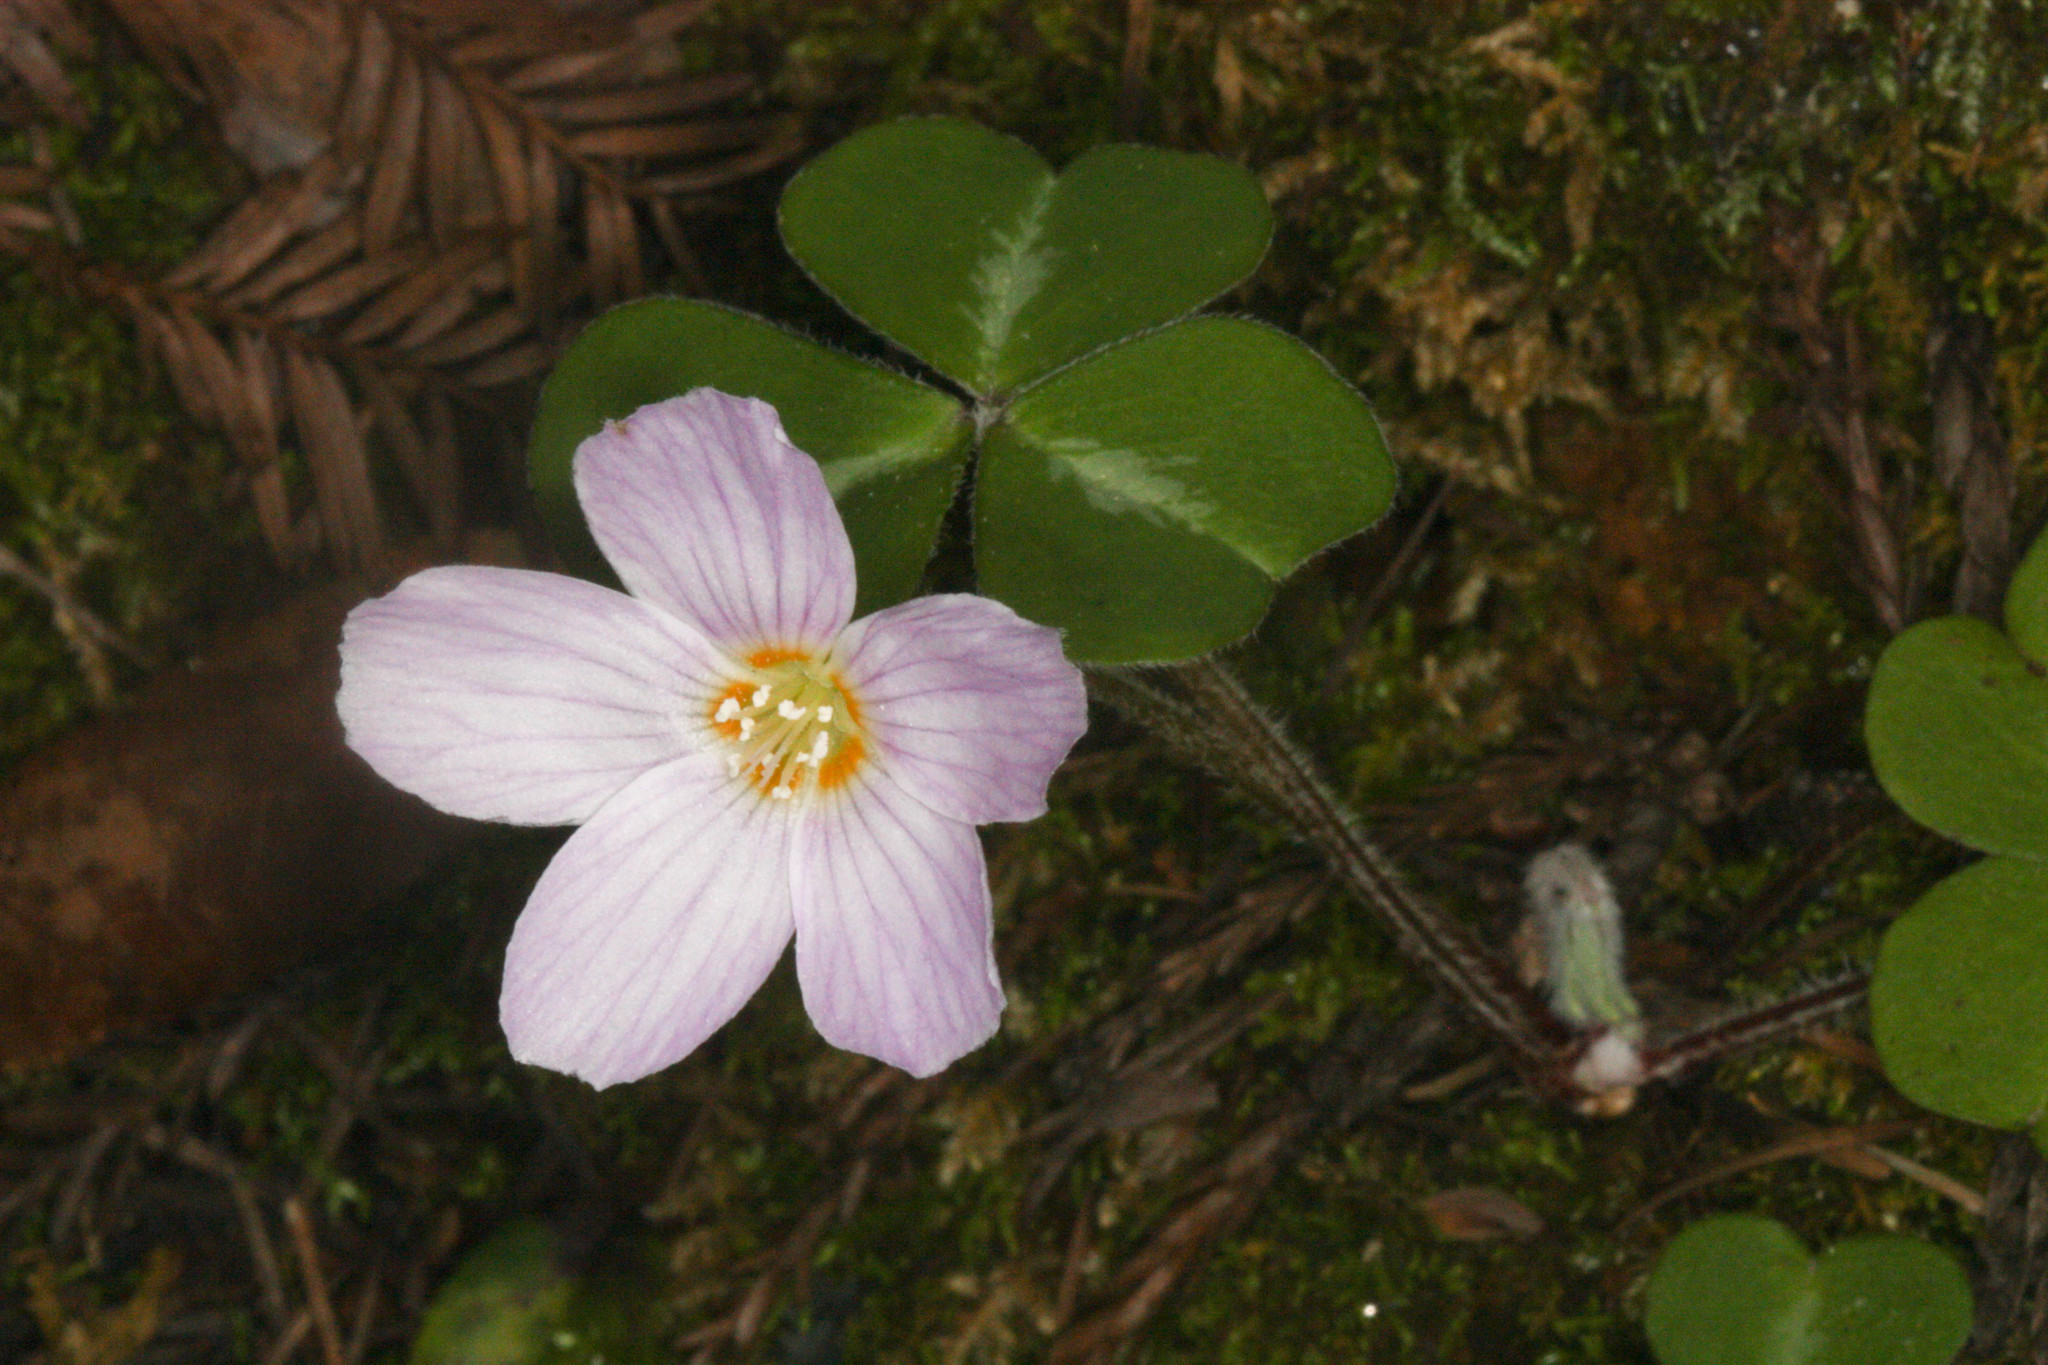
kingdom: Plantae
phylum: Tracheophyta
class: Magnoliopsida
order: Oxalidales
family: Oxalidaceae
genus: Oxalis
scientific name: Oxalis oregana
